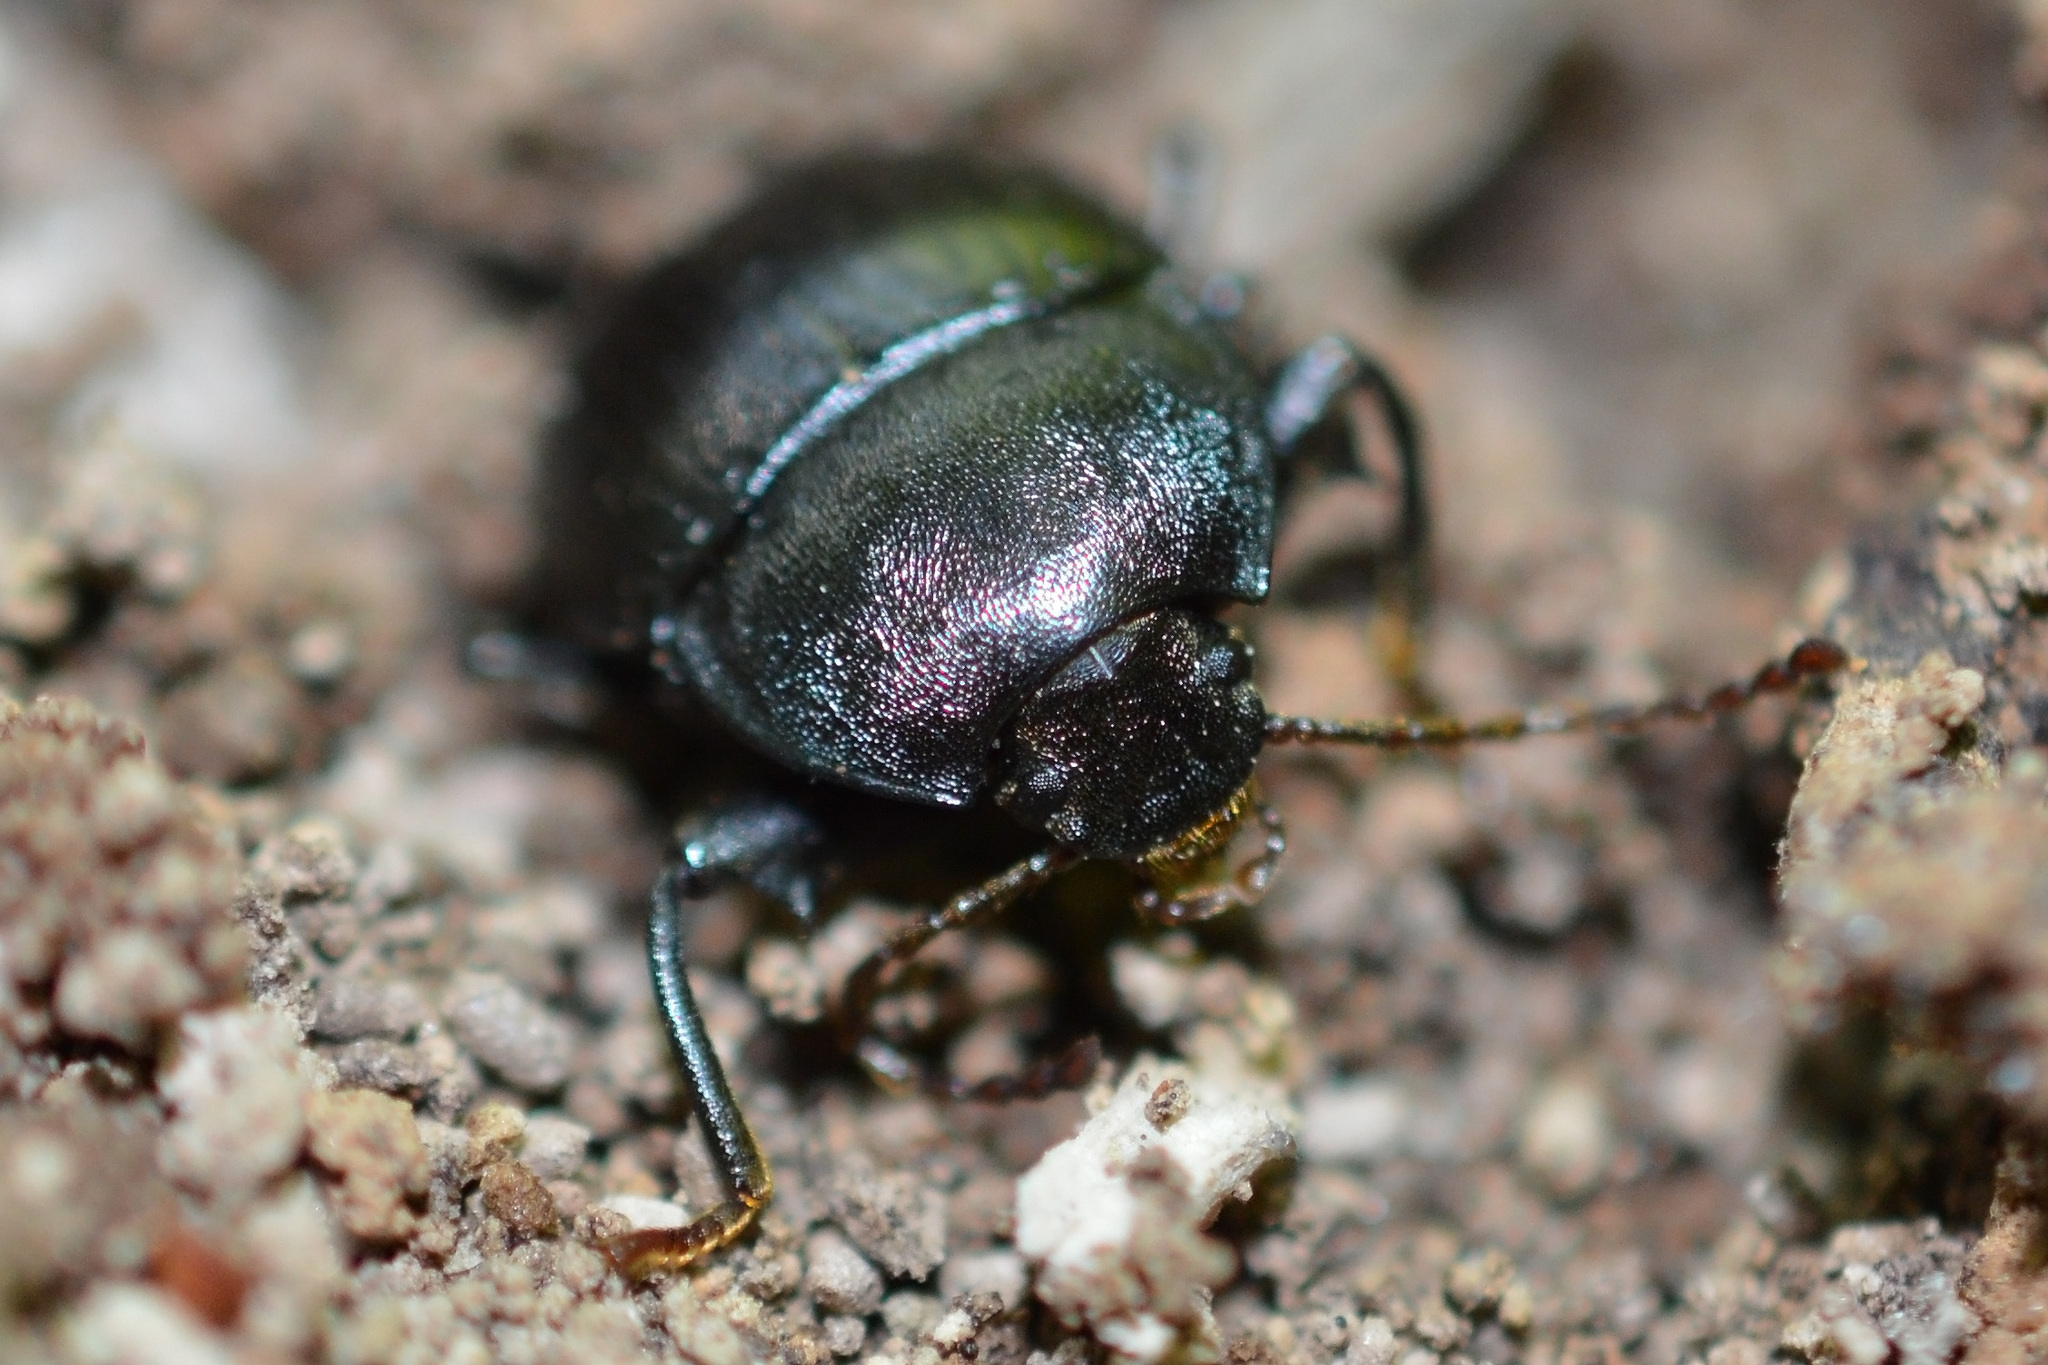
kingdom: Animalia
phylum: Arthropoda
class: Insecta
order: Coleoptera
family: Tenebrionidae
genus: Accanthopus
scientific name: Accanthopus velikensis
